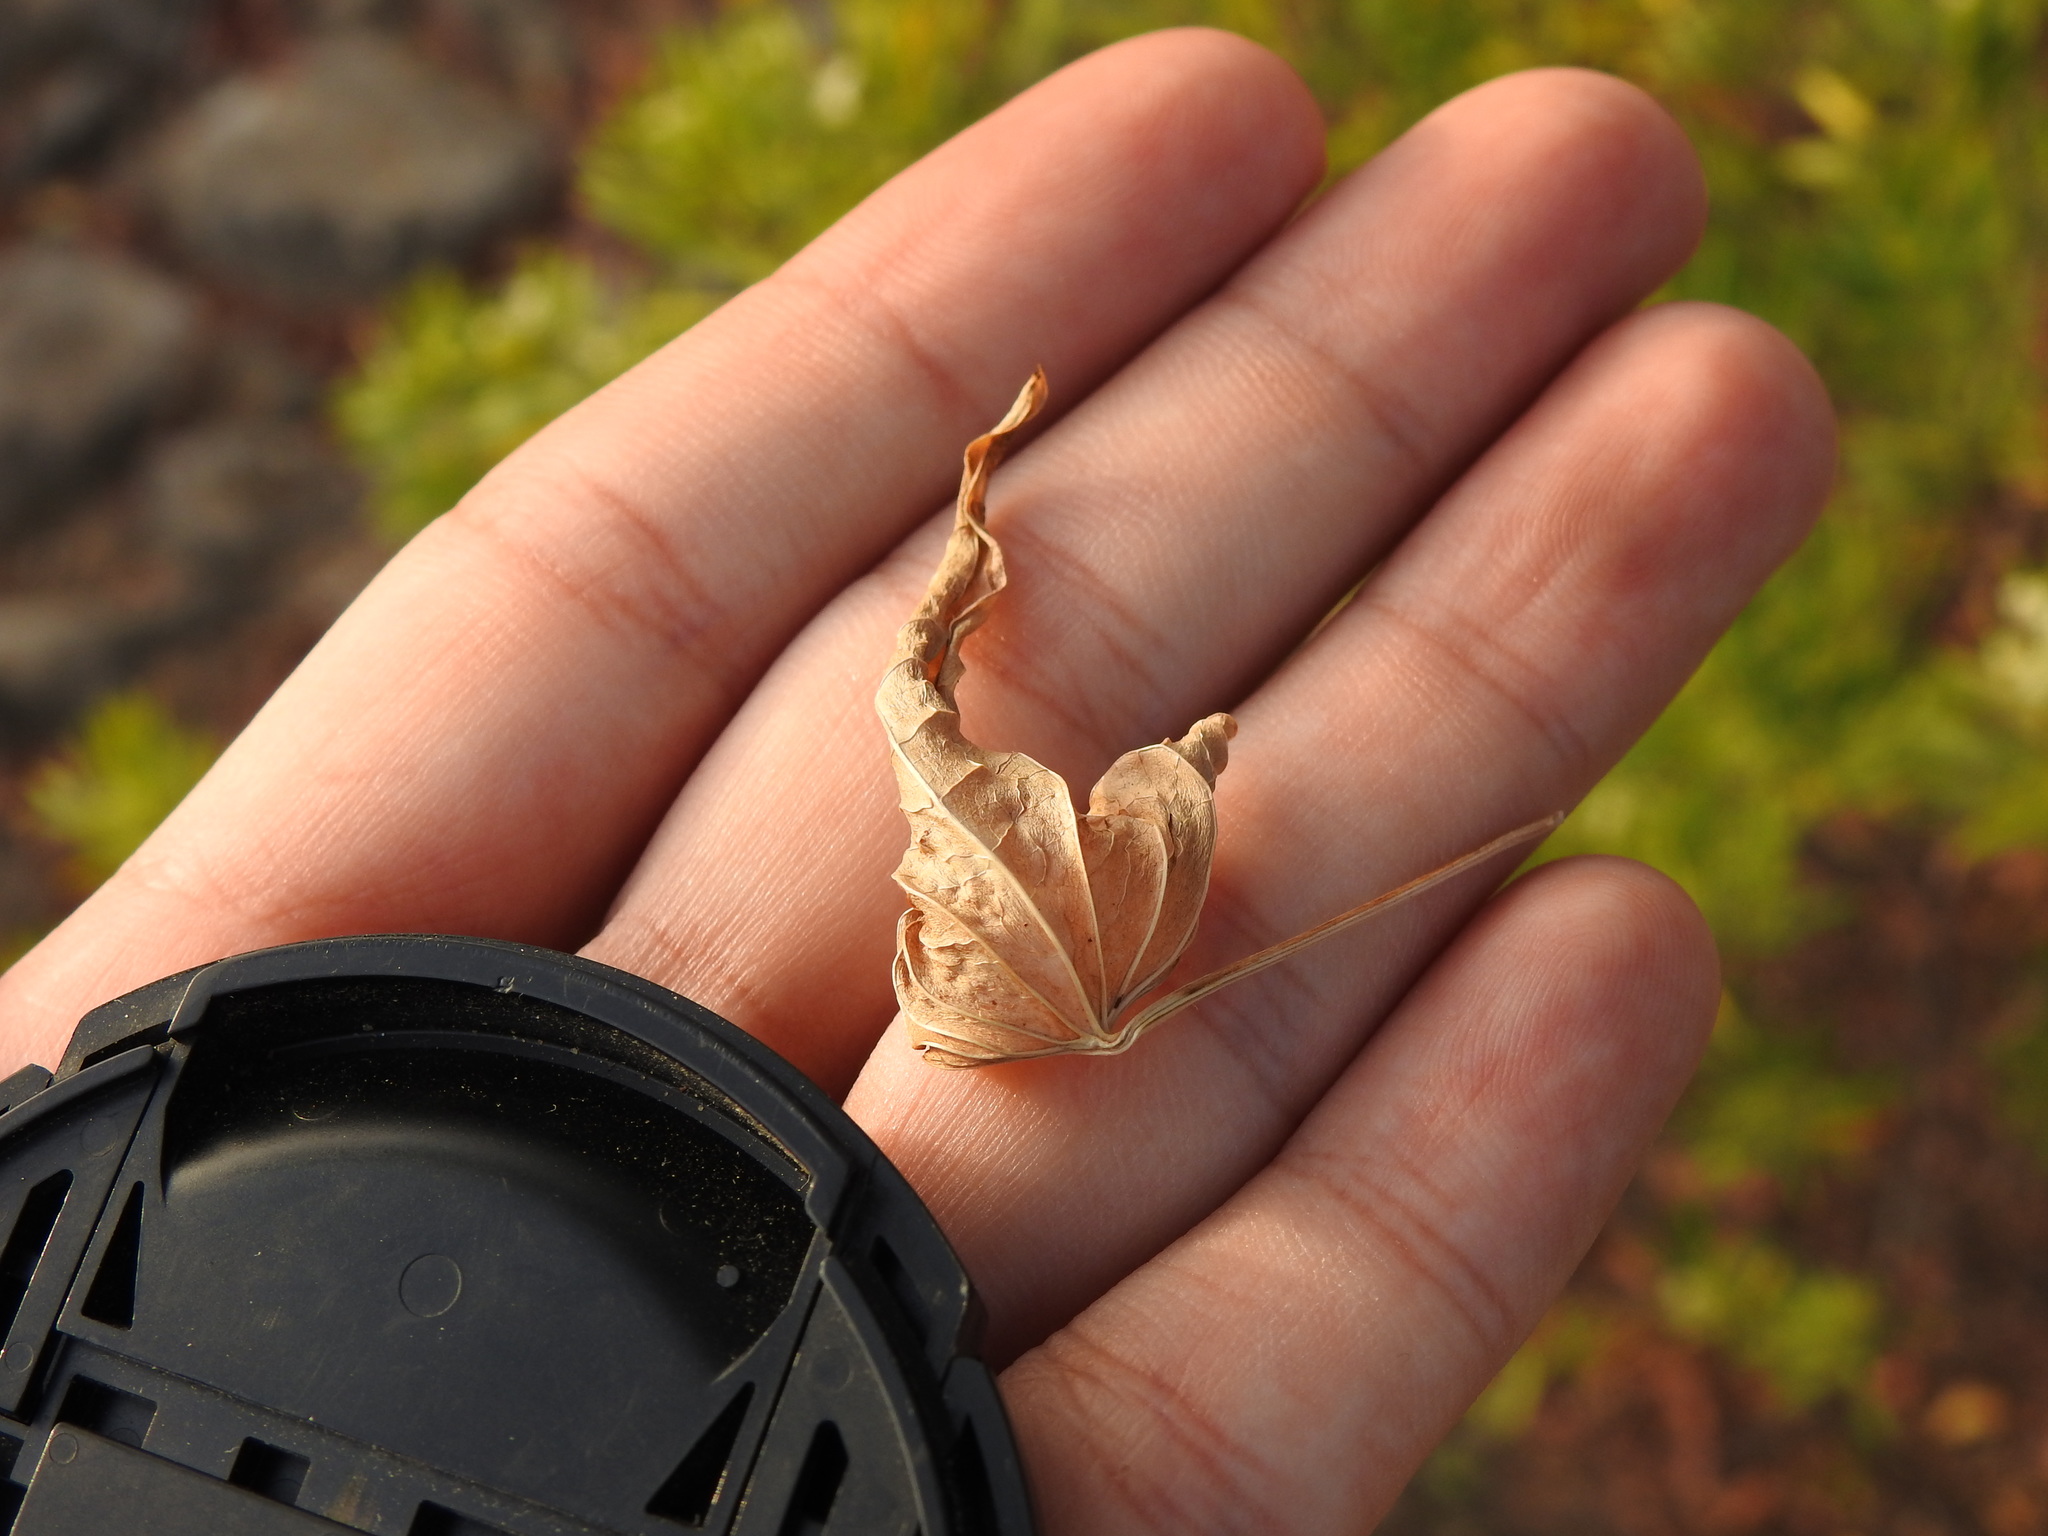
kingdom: Plantae
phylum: Tracheophyta
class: Liliopsida
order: Dioscoreales
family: Dioscoreaceae
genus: Dioscorea
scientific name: Dioscorea communis
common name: Black-bindweed
